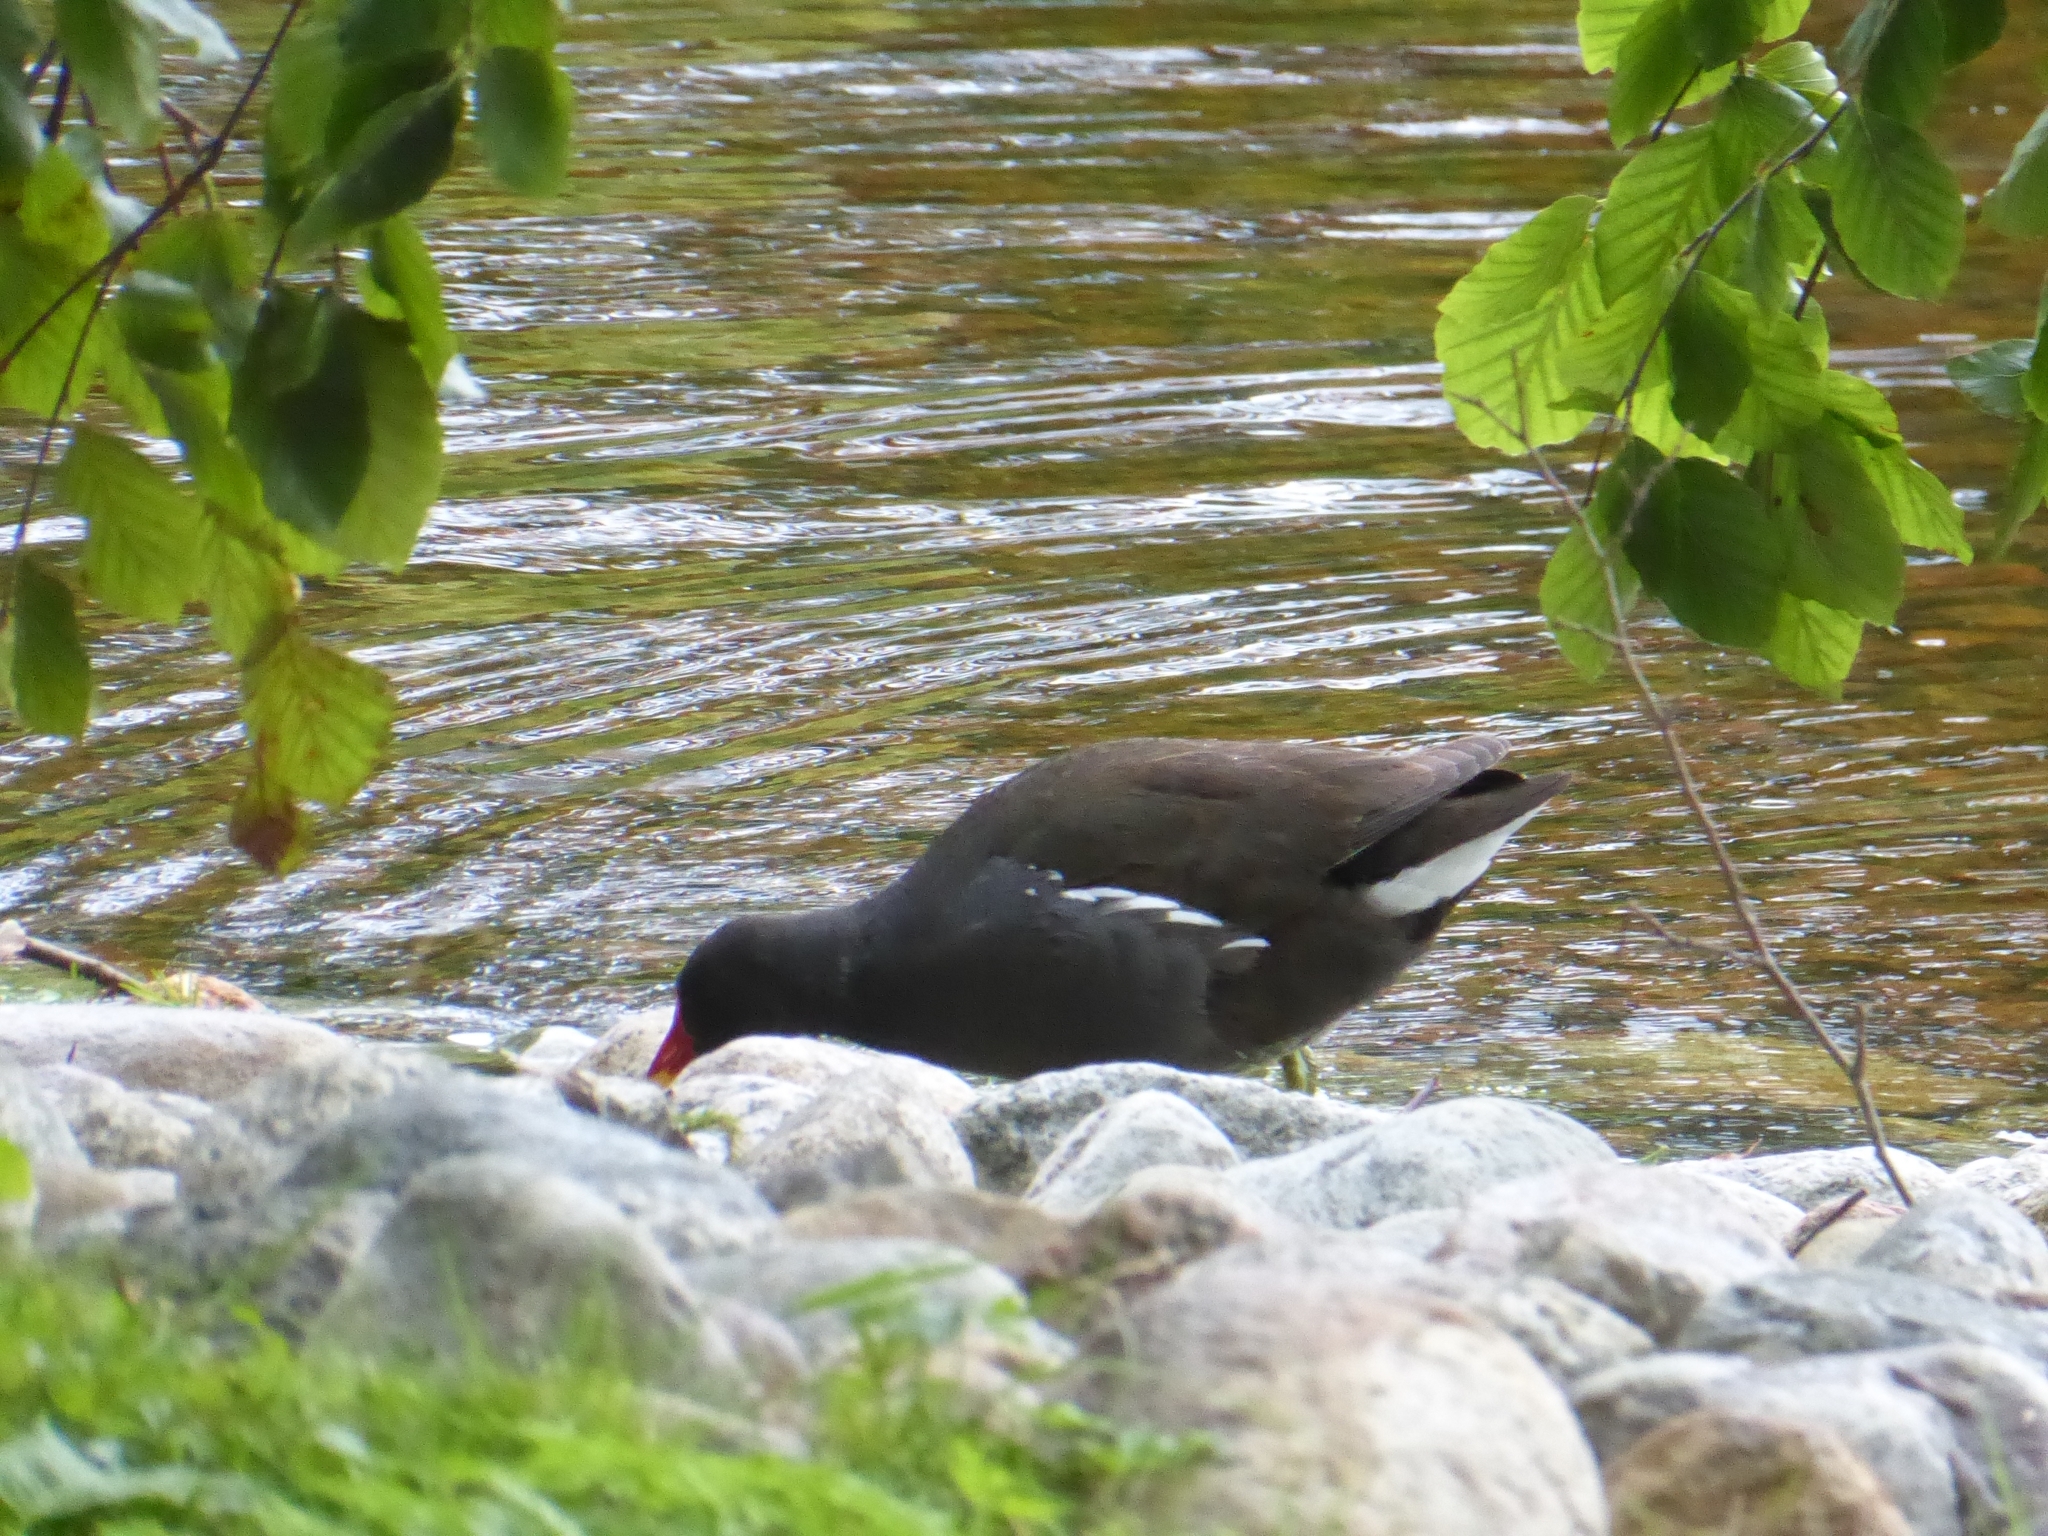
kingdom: Animalia
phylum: Chordata
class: Aves
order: Gruiformes
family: Rallidae
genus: Gallinula
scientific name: Gallinula chloropus
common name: Common moorhen
